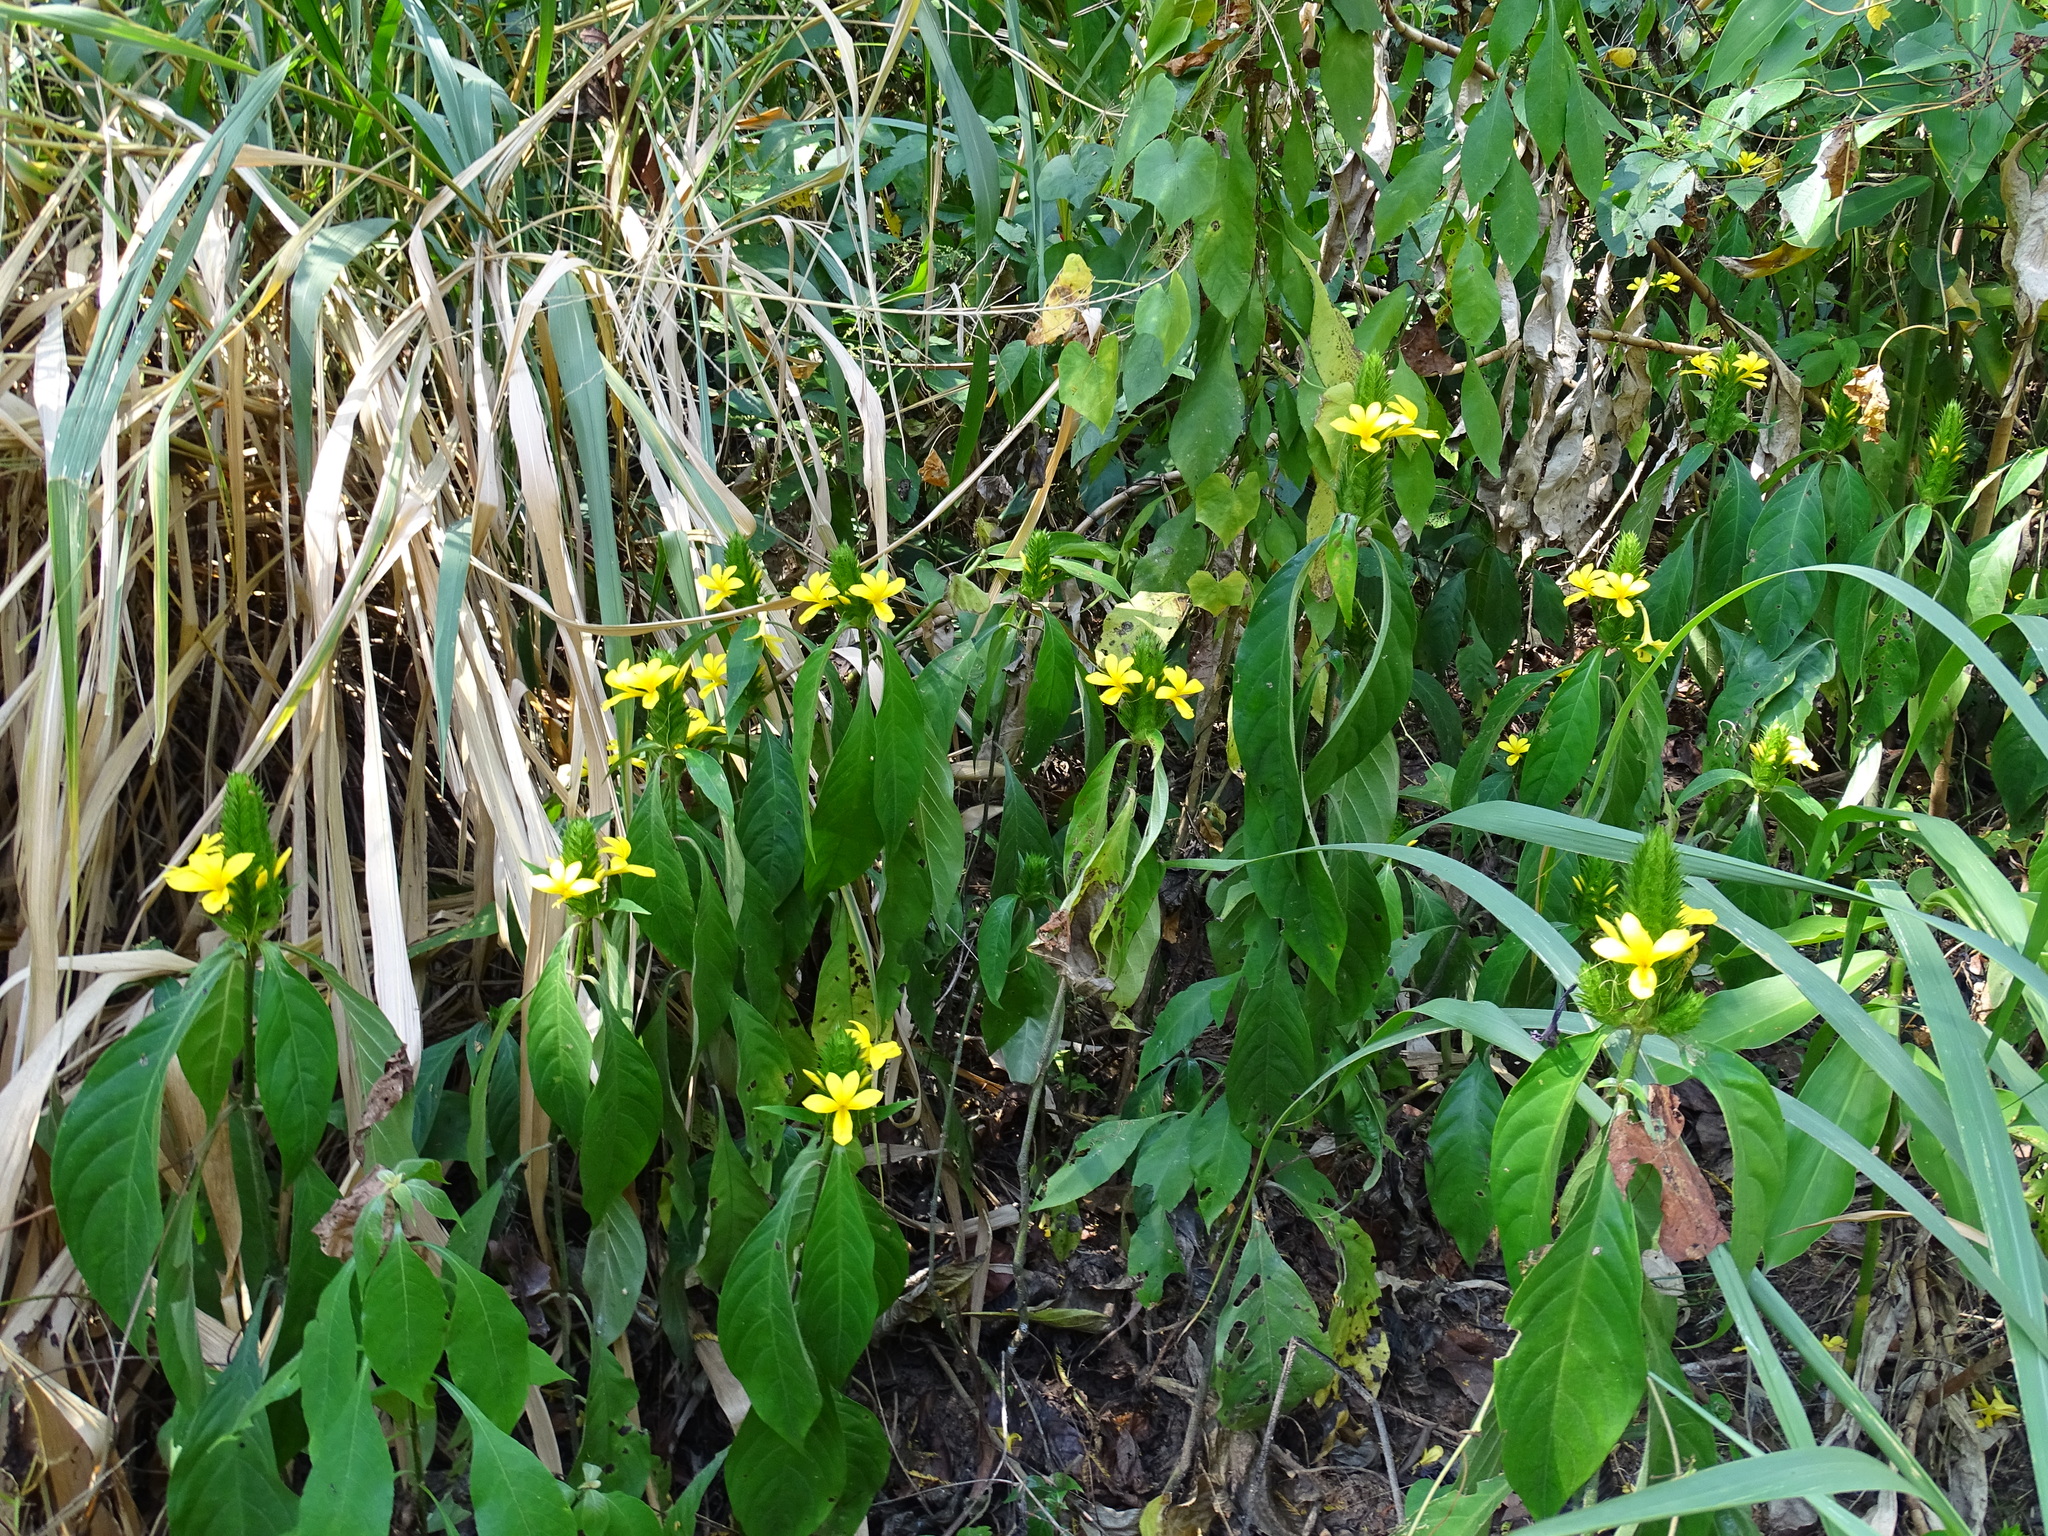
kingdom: Plantae
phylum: Tracheophyta
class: Magnoliopsida
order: Lamiales
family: Acanthaceae
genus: Barleria
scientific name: Barleria oenotheroides
